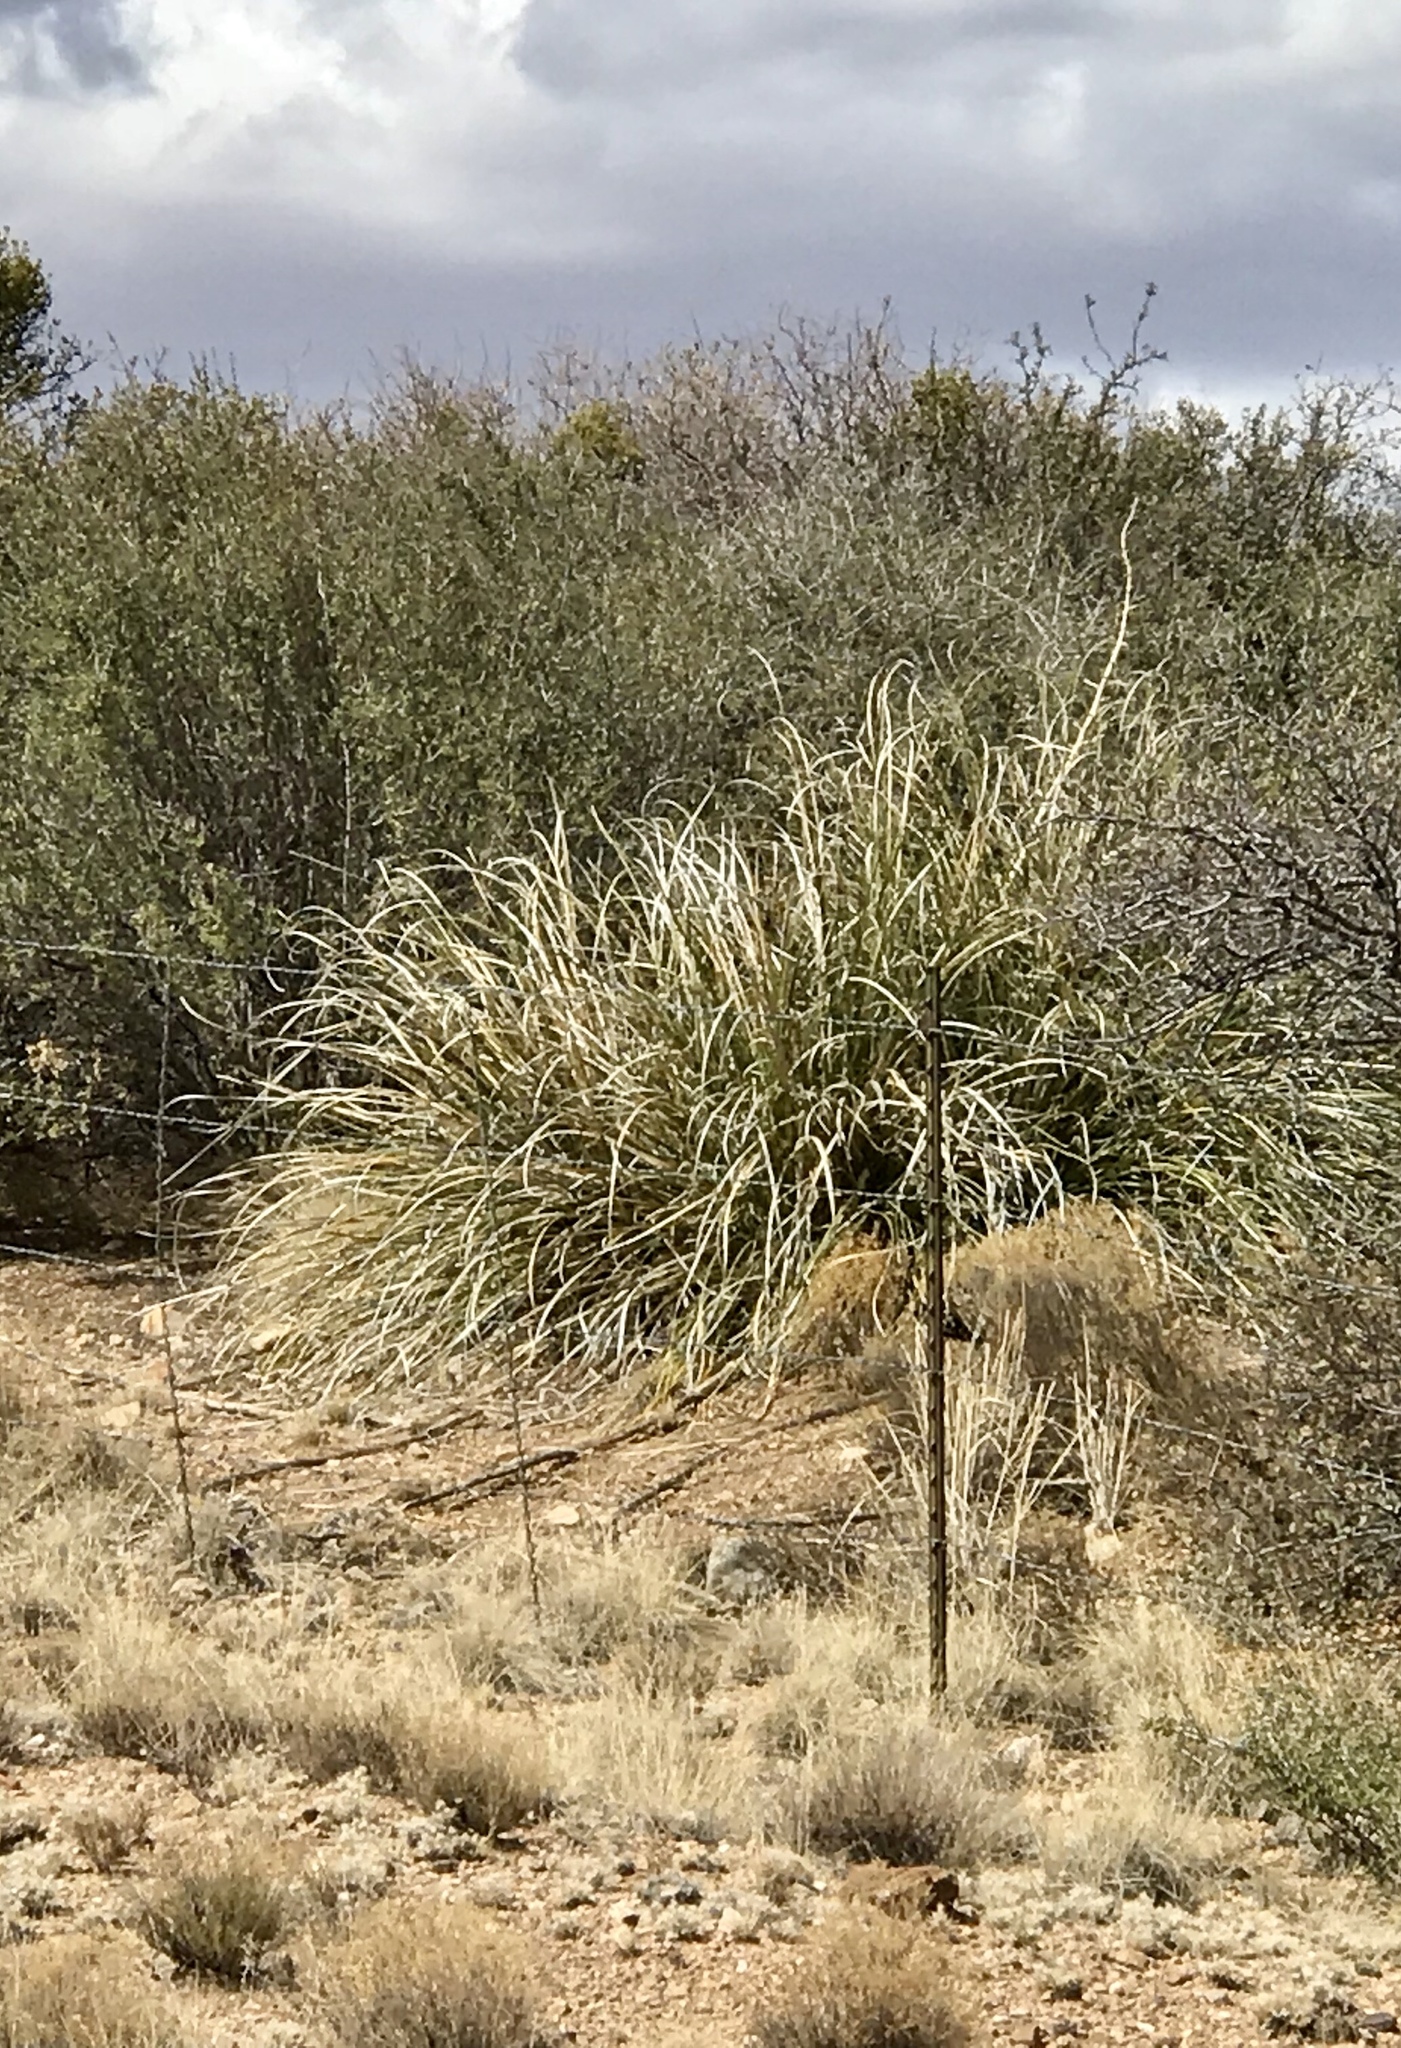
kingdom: Plantae
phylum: Tracheophyta
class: Liliopsida
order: Asparagales
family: Asparagaceae
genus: Nolina
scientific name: Nolina microcarpa
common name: Bear-grass
